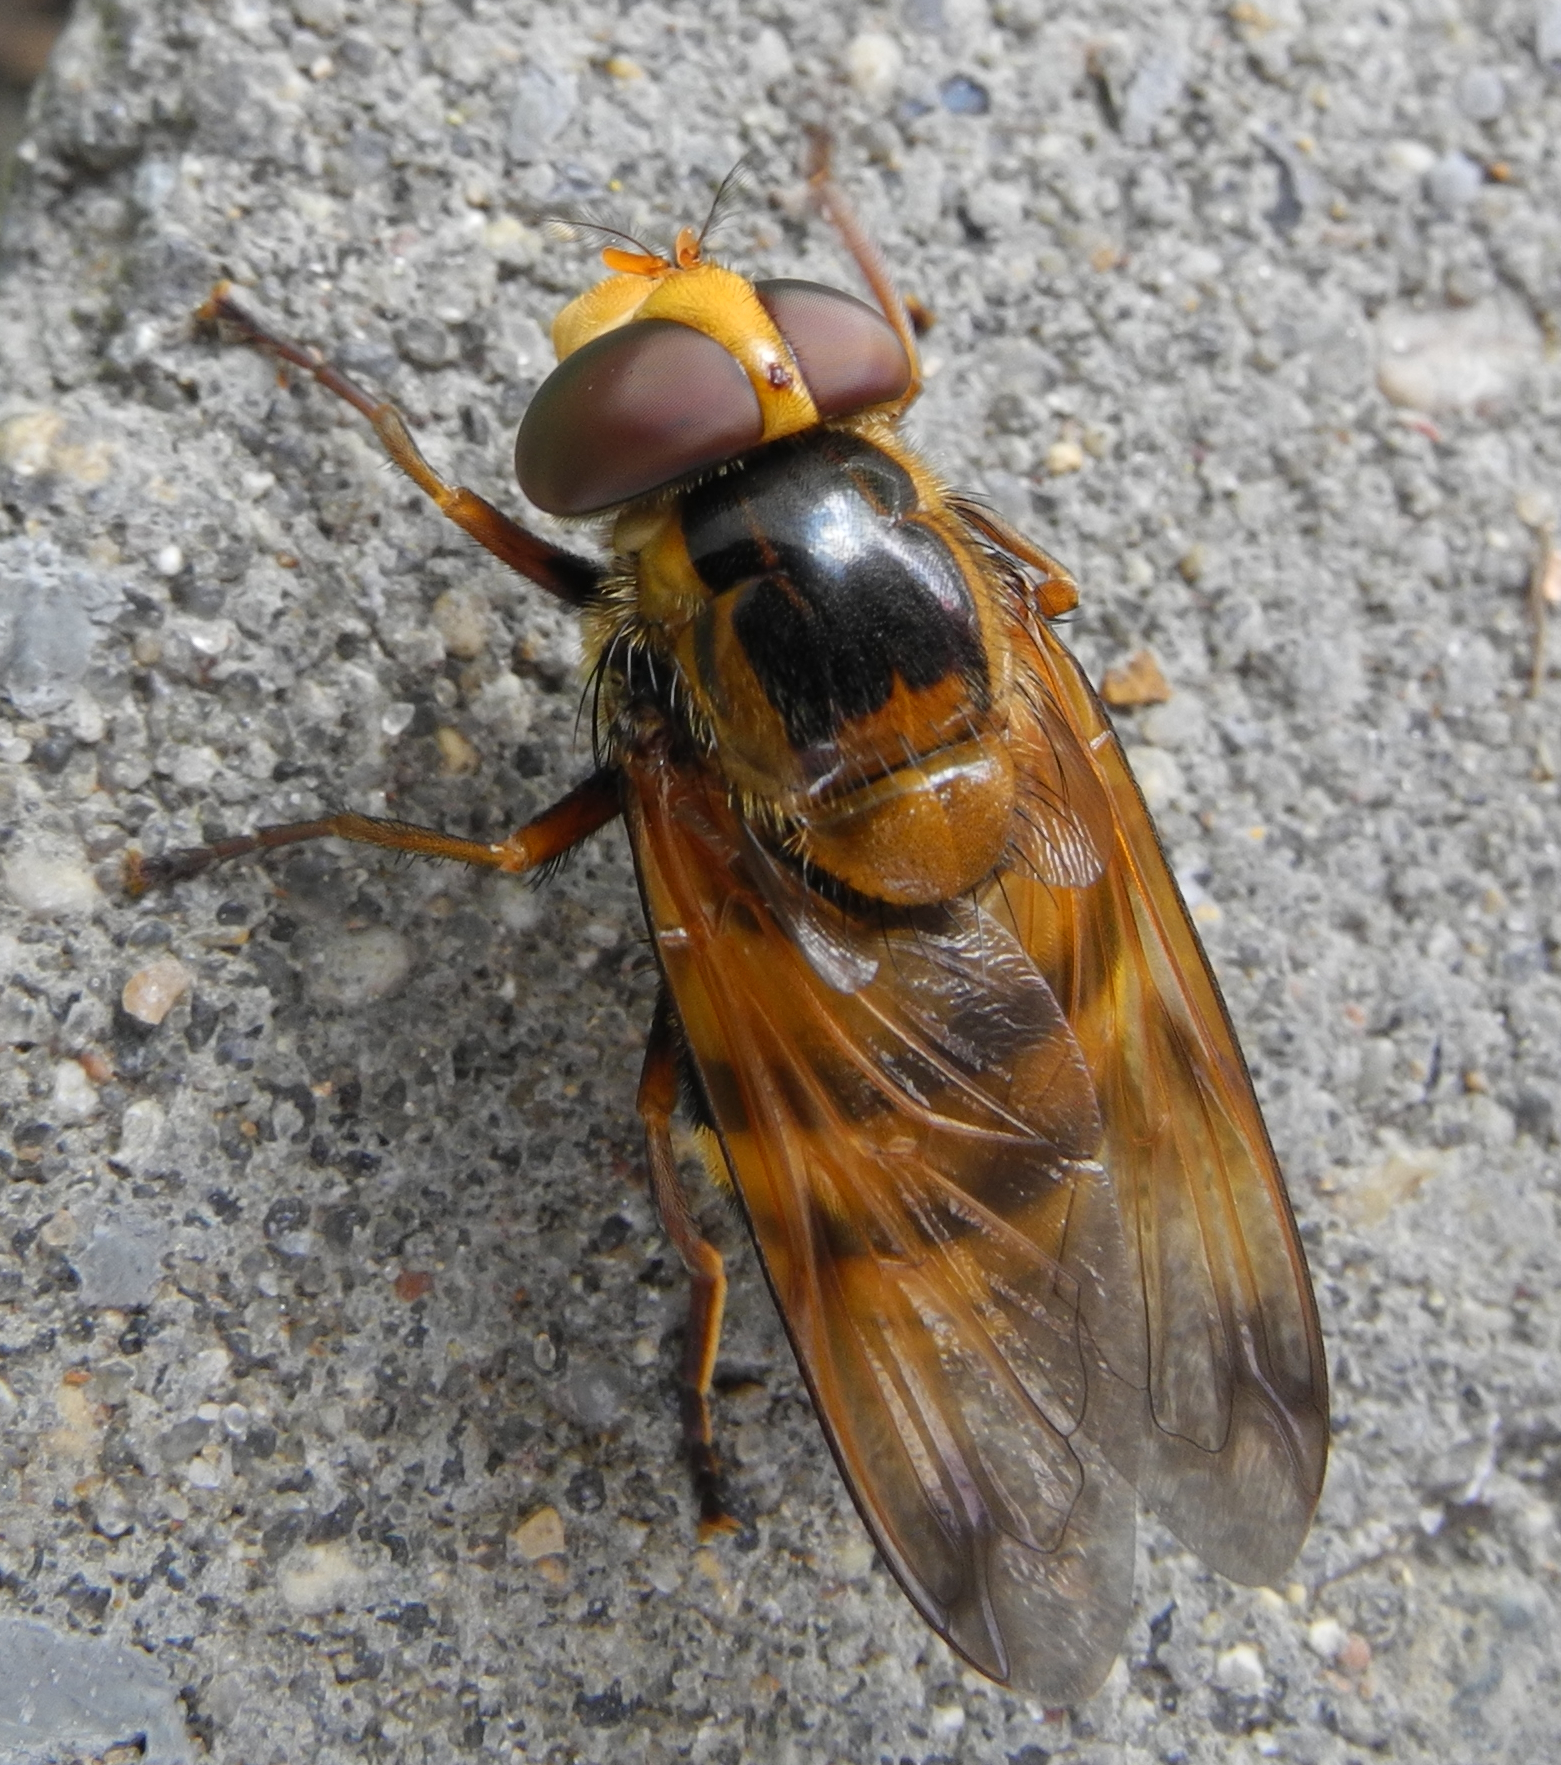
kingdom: Animalia
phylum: Arthropoda
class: Insecta
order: Diptera
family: Syrphidae
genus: Volucella
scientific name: Volucella inanis
